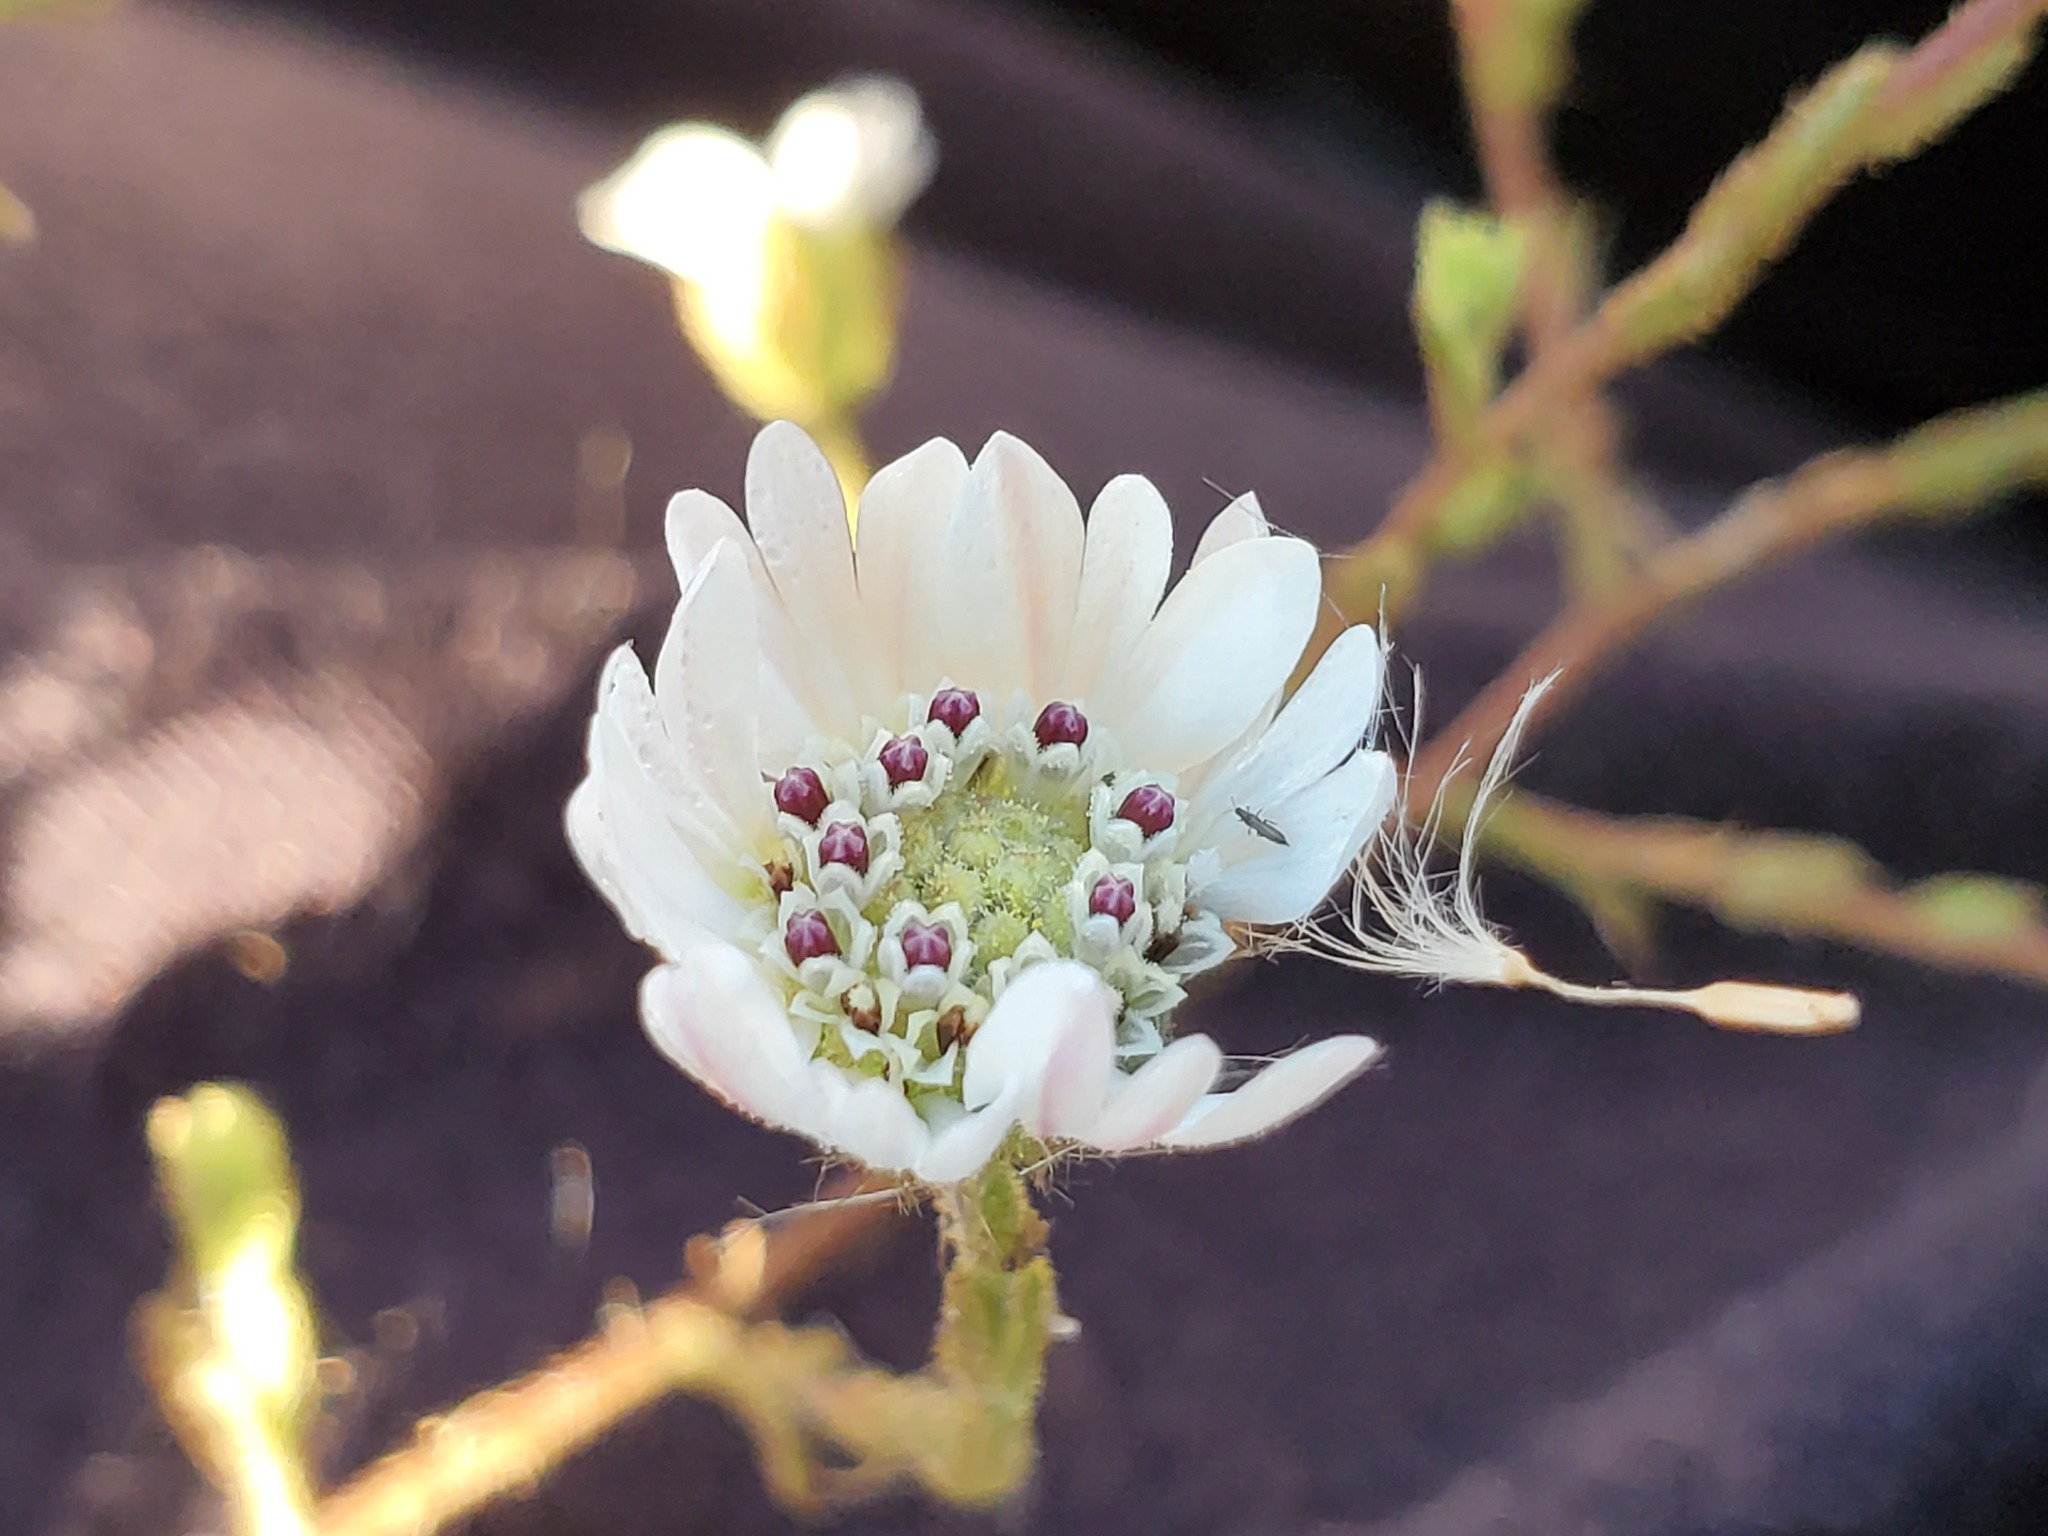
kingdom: Plantae
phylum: Tracheophyta
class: Magnoliopsida
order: Asterales
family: Asteraceae
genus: Hemizonia
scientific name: Hemizonia congesta
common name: Hayfield tarweed
